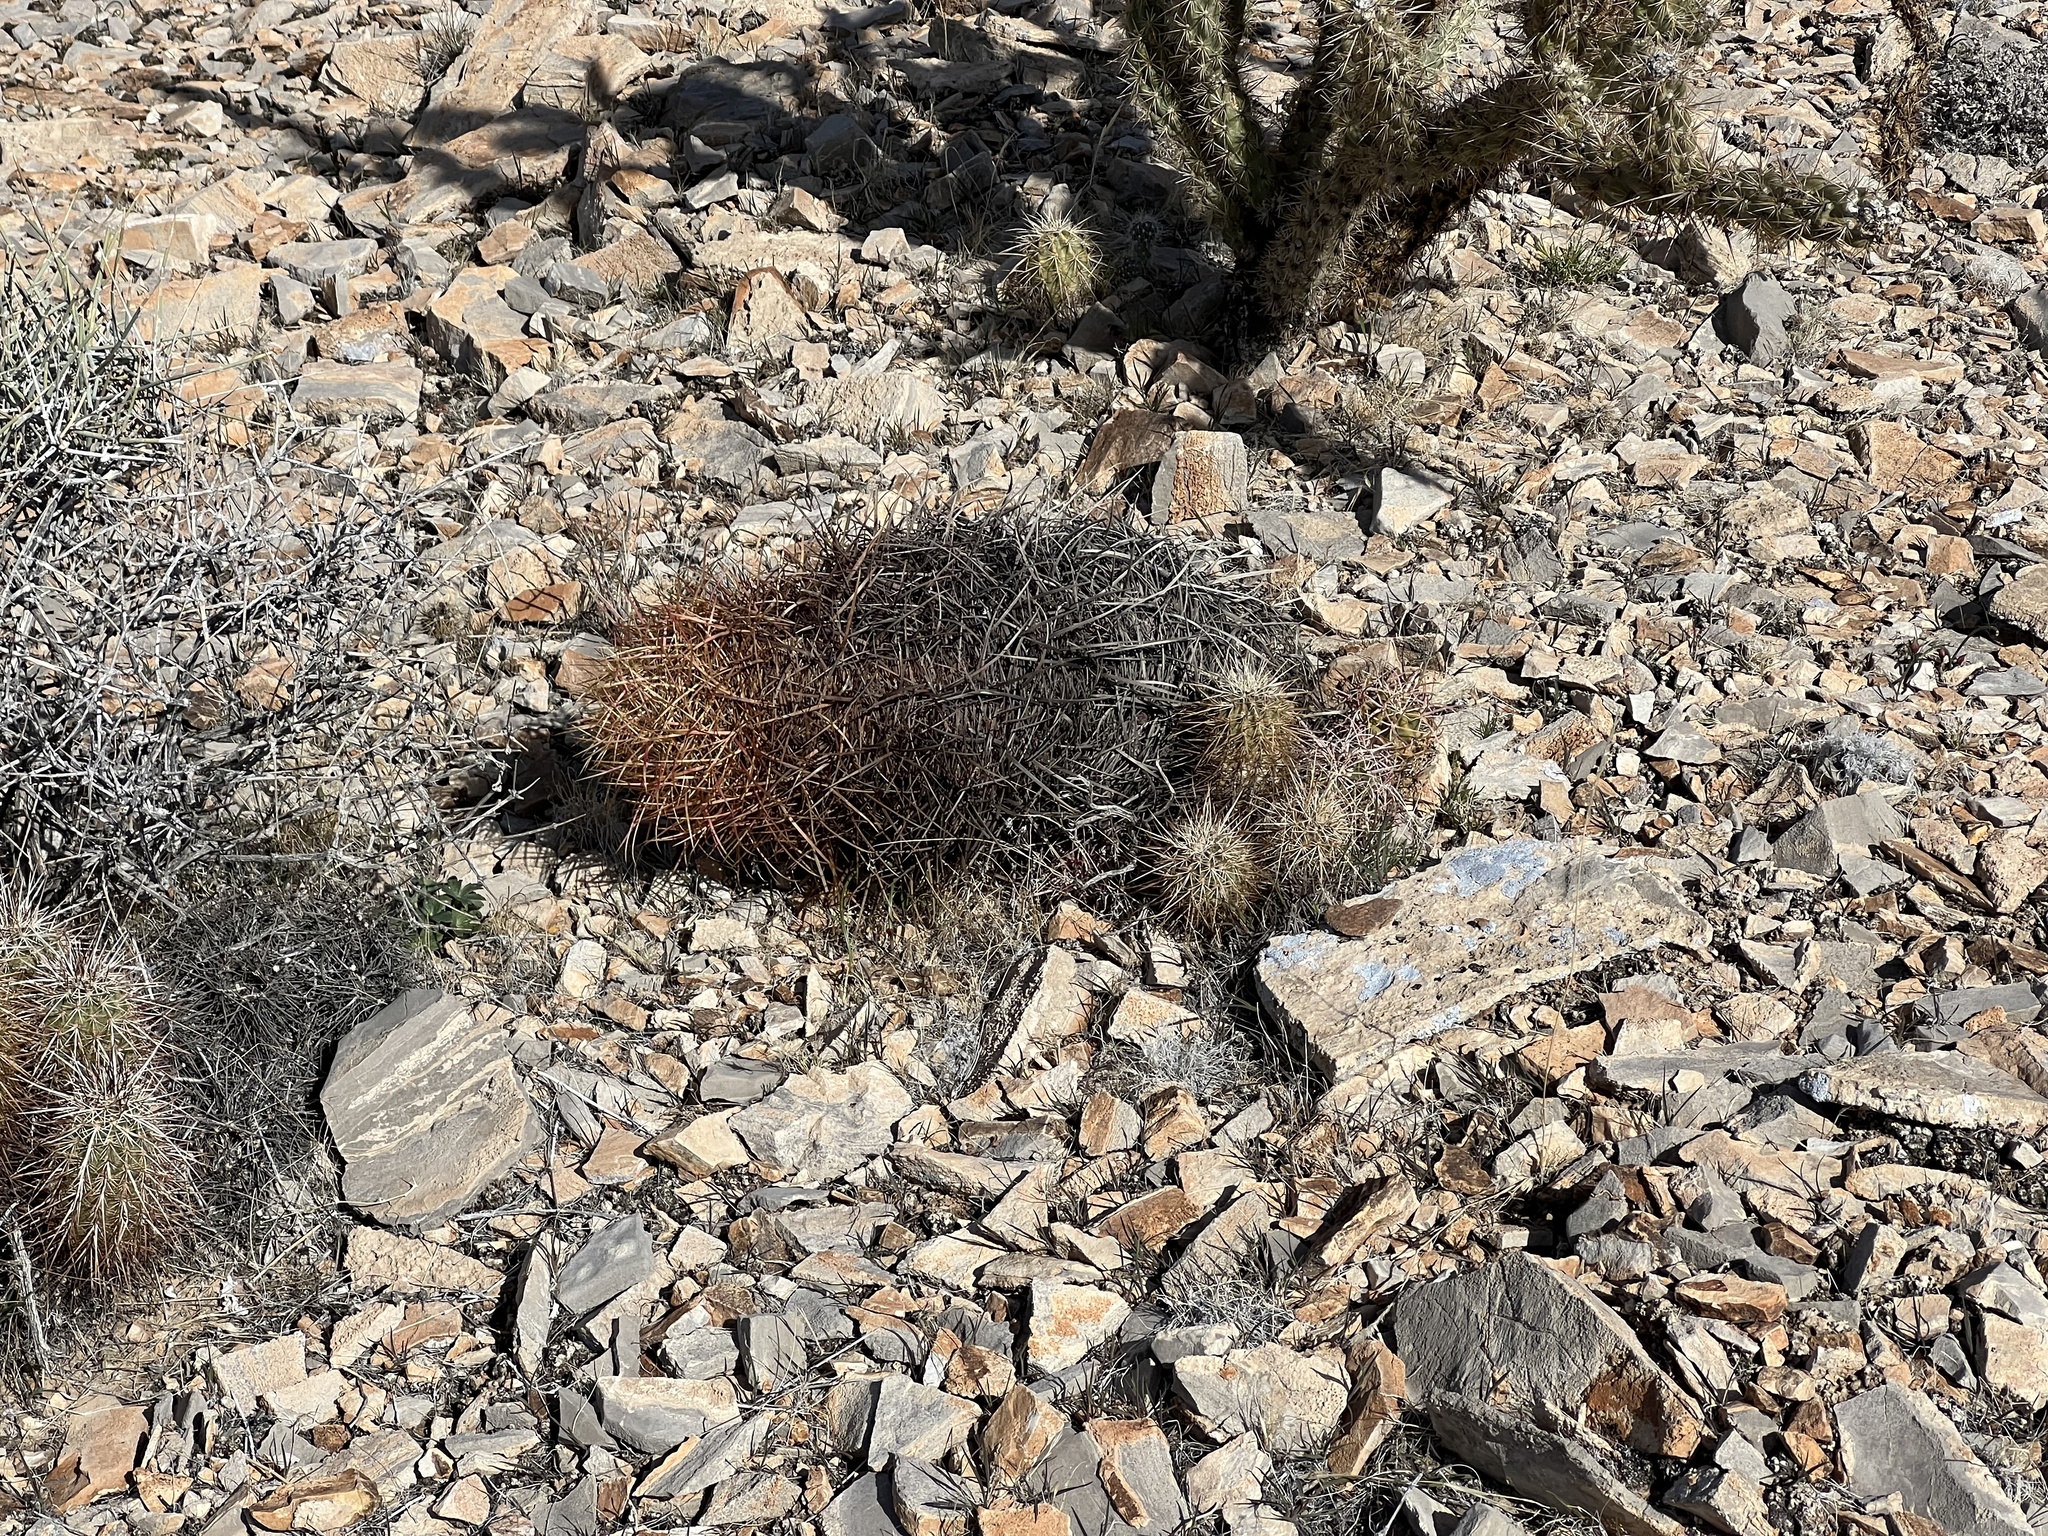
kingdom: Plantae
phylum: Tracheophyta
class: Magnoliopsida
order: Caryophyllales
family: Cactaceae
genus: Ferocactus
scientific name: Ferocactus cylindraceus
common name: California barrel cactus
